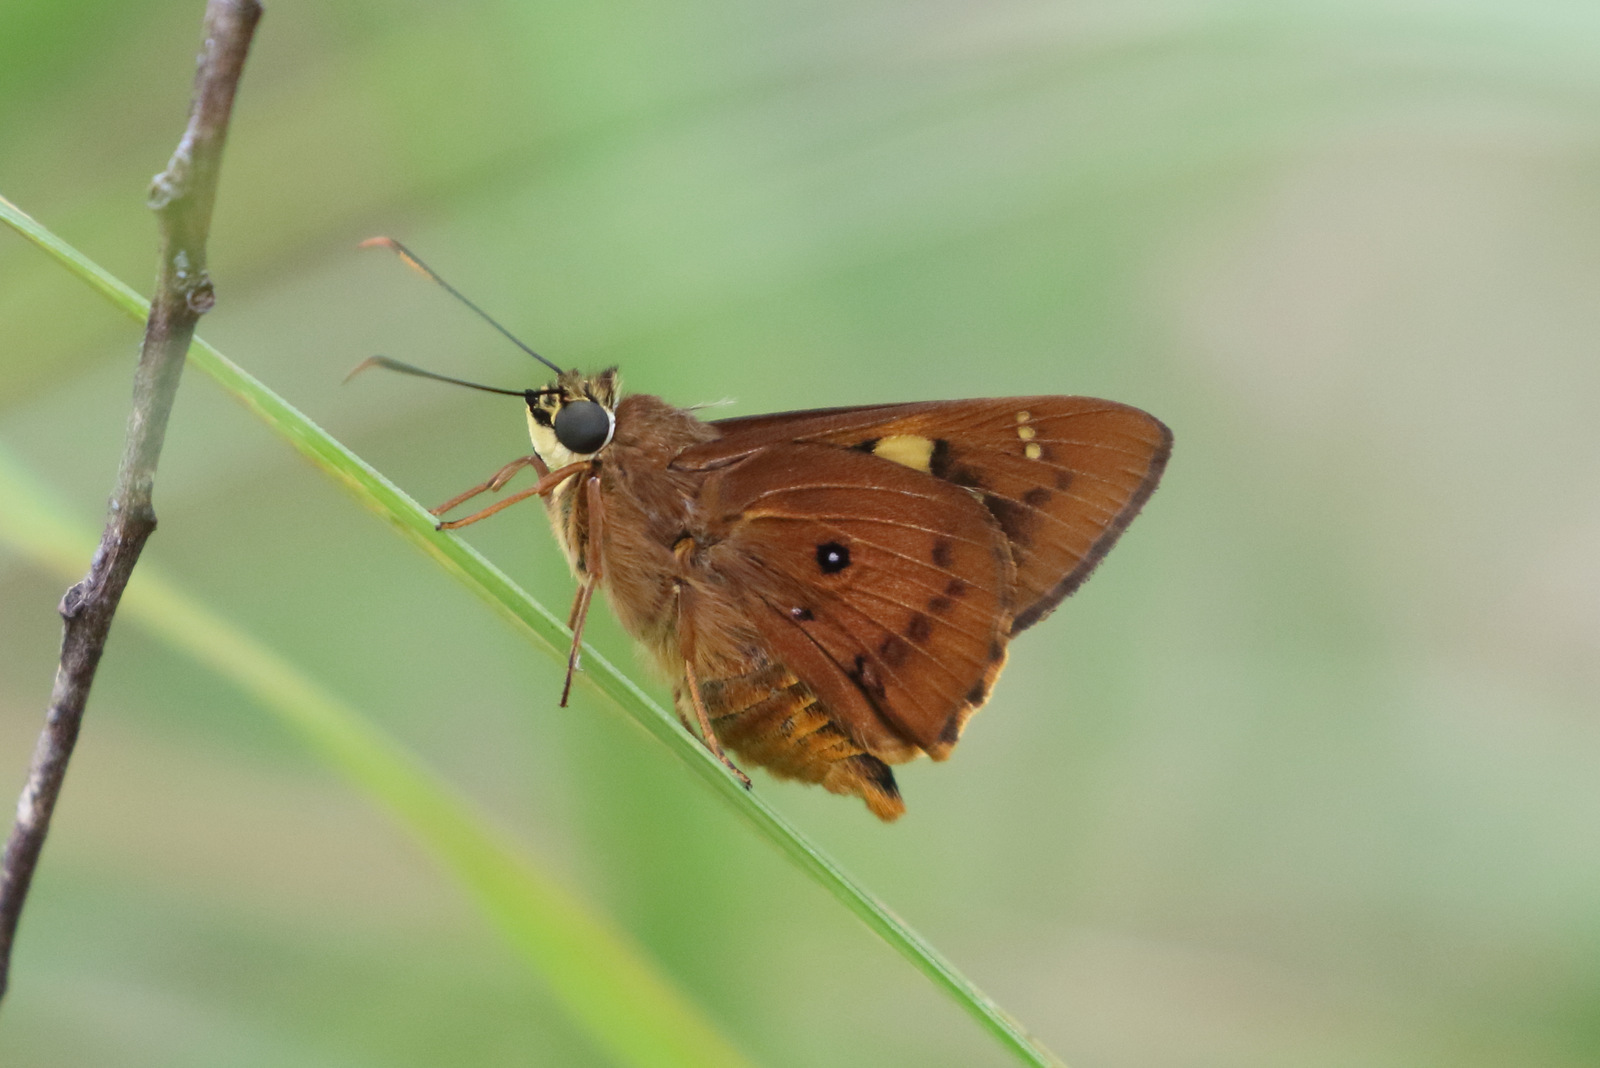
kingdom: Animalia
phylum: Arthropoda
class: Insecta
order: Lepidoptera
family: Hesperiidae
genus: Trapezites
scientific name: Trapezites symmomus
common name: Splendid ochre
